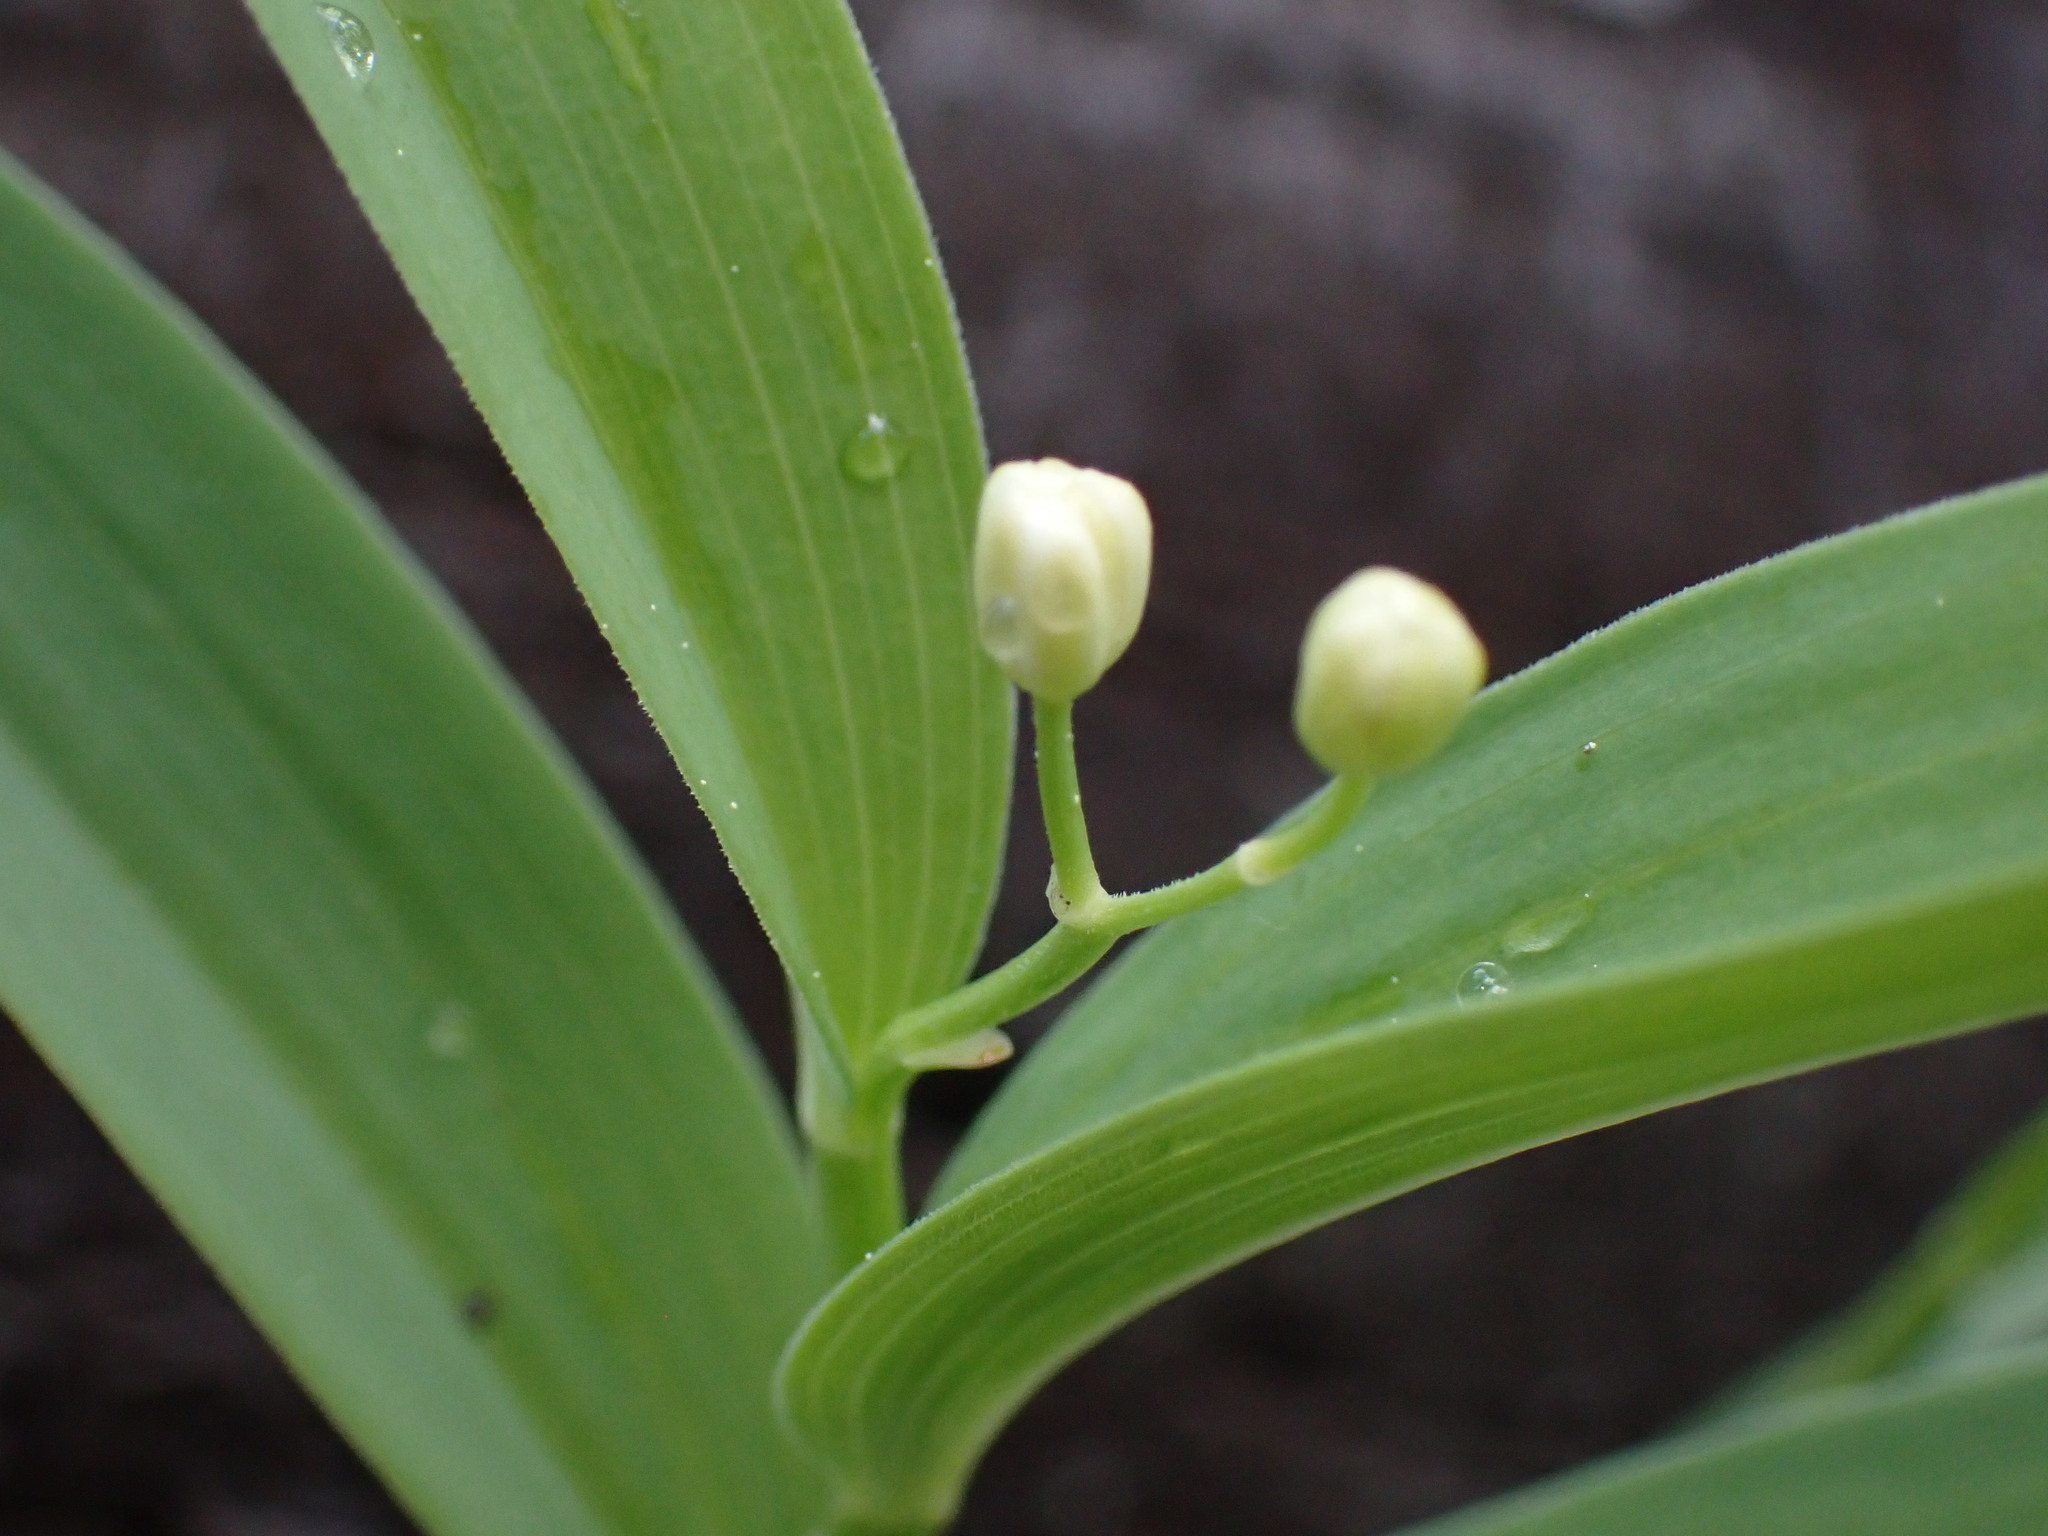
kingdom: Plantae
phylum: Tracheophyta
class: Liliopsida
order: Asparagales
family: Asparagaceae
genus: Maianthemum
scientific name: Maianthemum stellatum
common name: Little false solomon's seal
